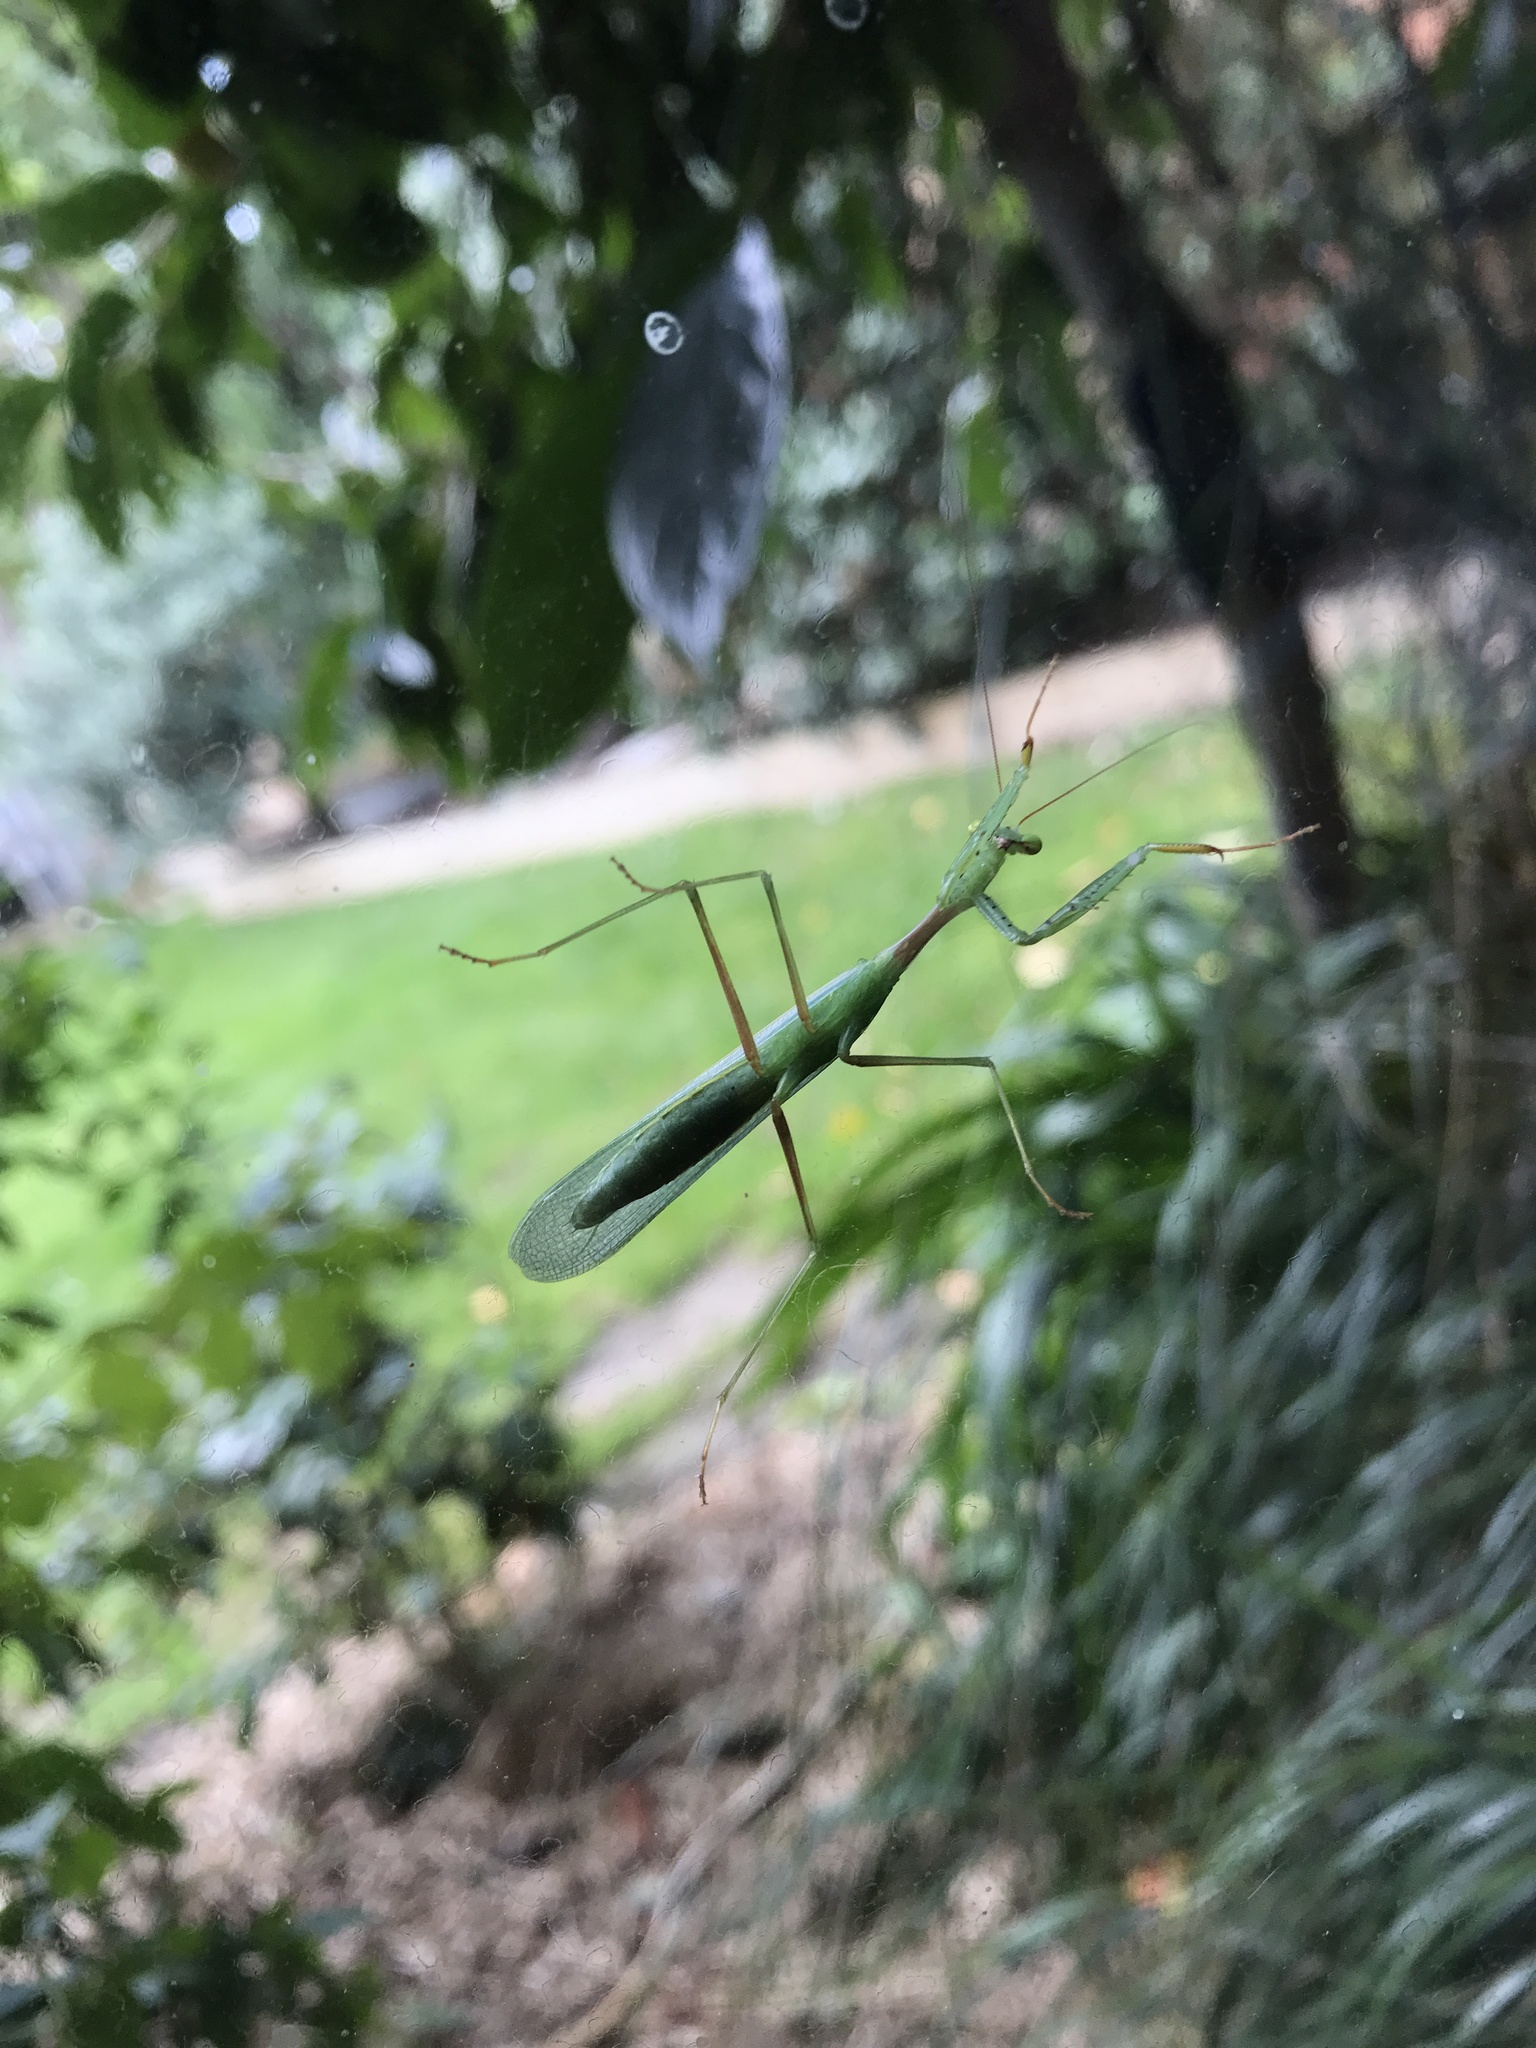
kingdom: Animalia
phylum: Arthropoda
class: Insecta
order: Mantodea
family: Miomantidae
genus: Miomantis
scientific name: Miomantis caffra
